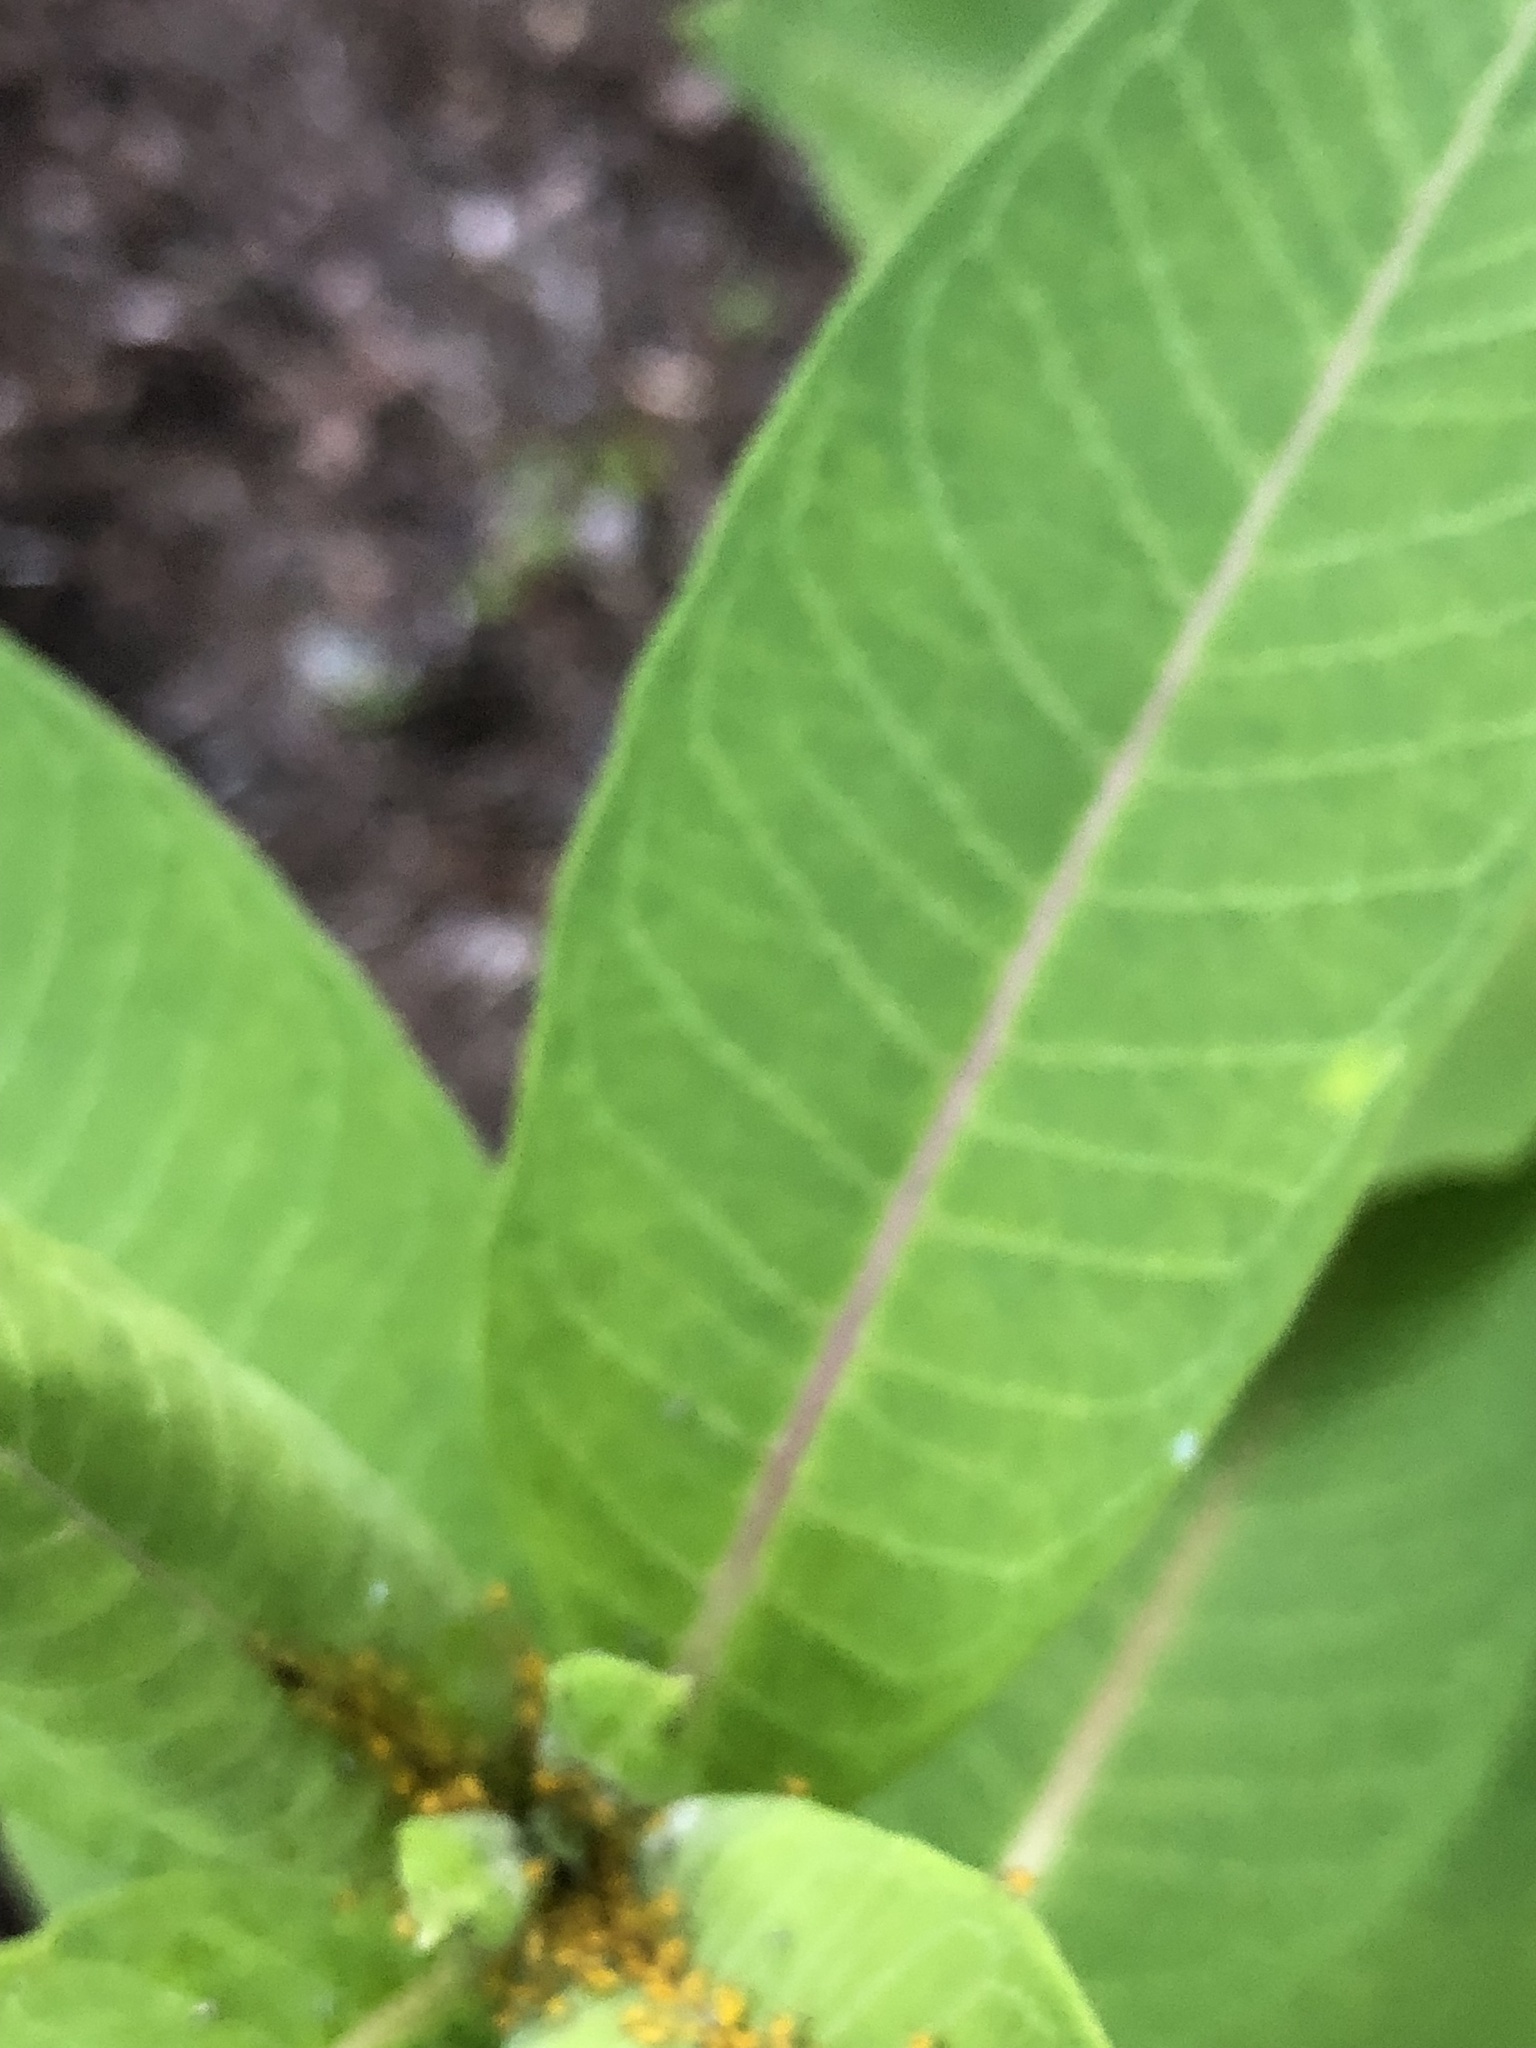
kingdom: Animalia
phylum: Arthropoda
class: Insecta
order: Hemiptera
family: Aphididae
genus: Aphis
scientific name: Aphis nerii
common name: Oleander aphid
